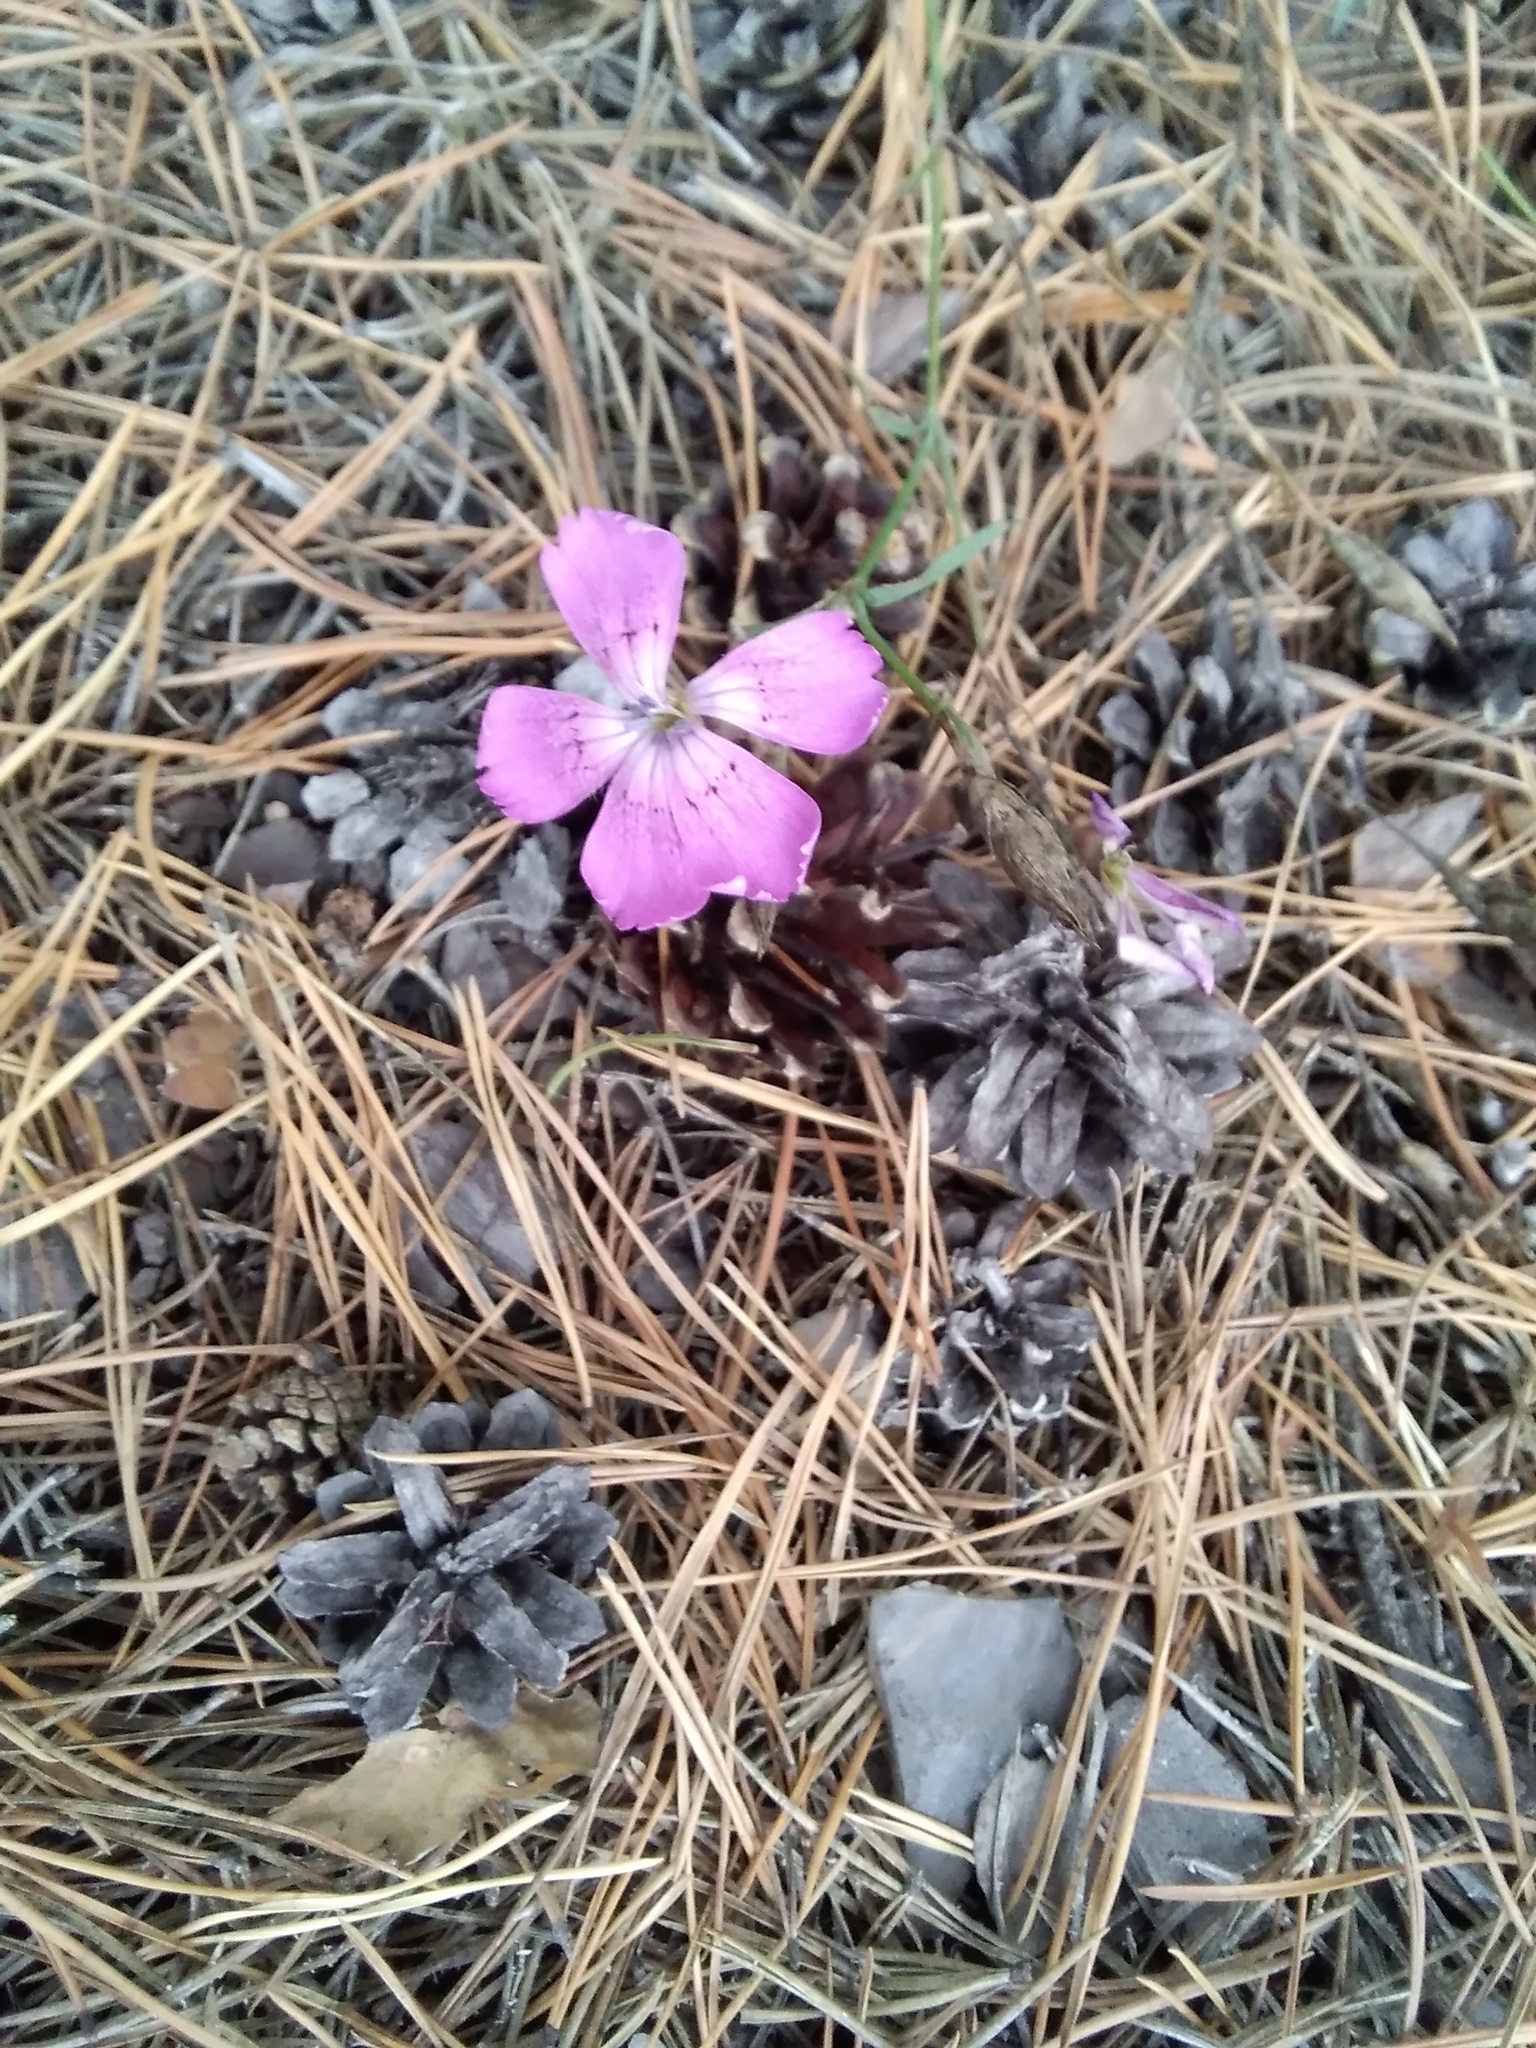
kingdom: Plantae
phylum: Tracheophyta
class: Magnoliopsida
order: Caryophyllales
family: Caryophyllaceae
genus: Dianthus
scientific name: Dianthus chinensis
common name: Rainbow pink
